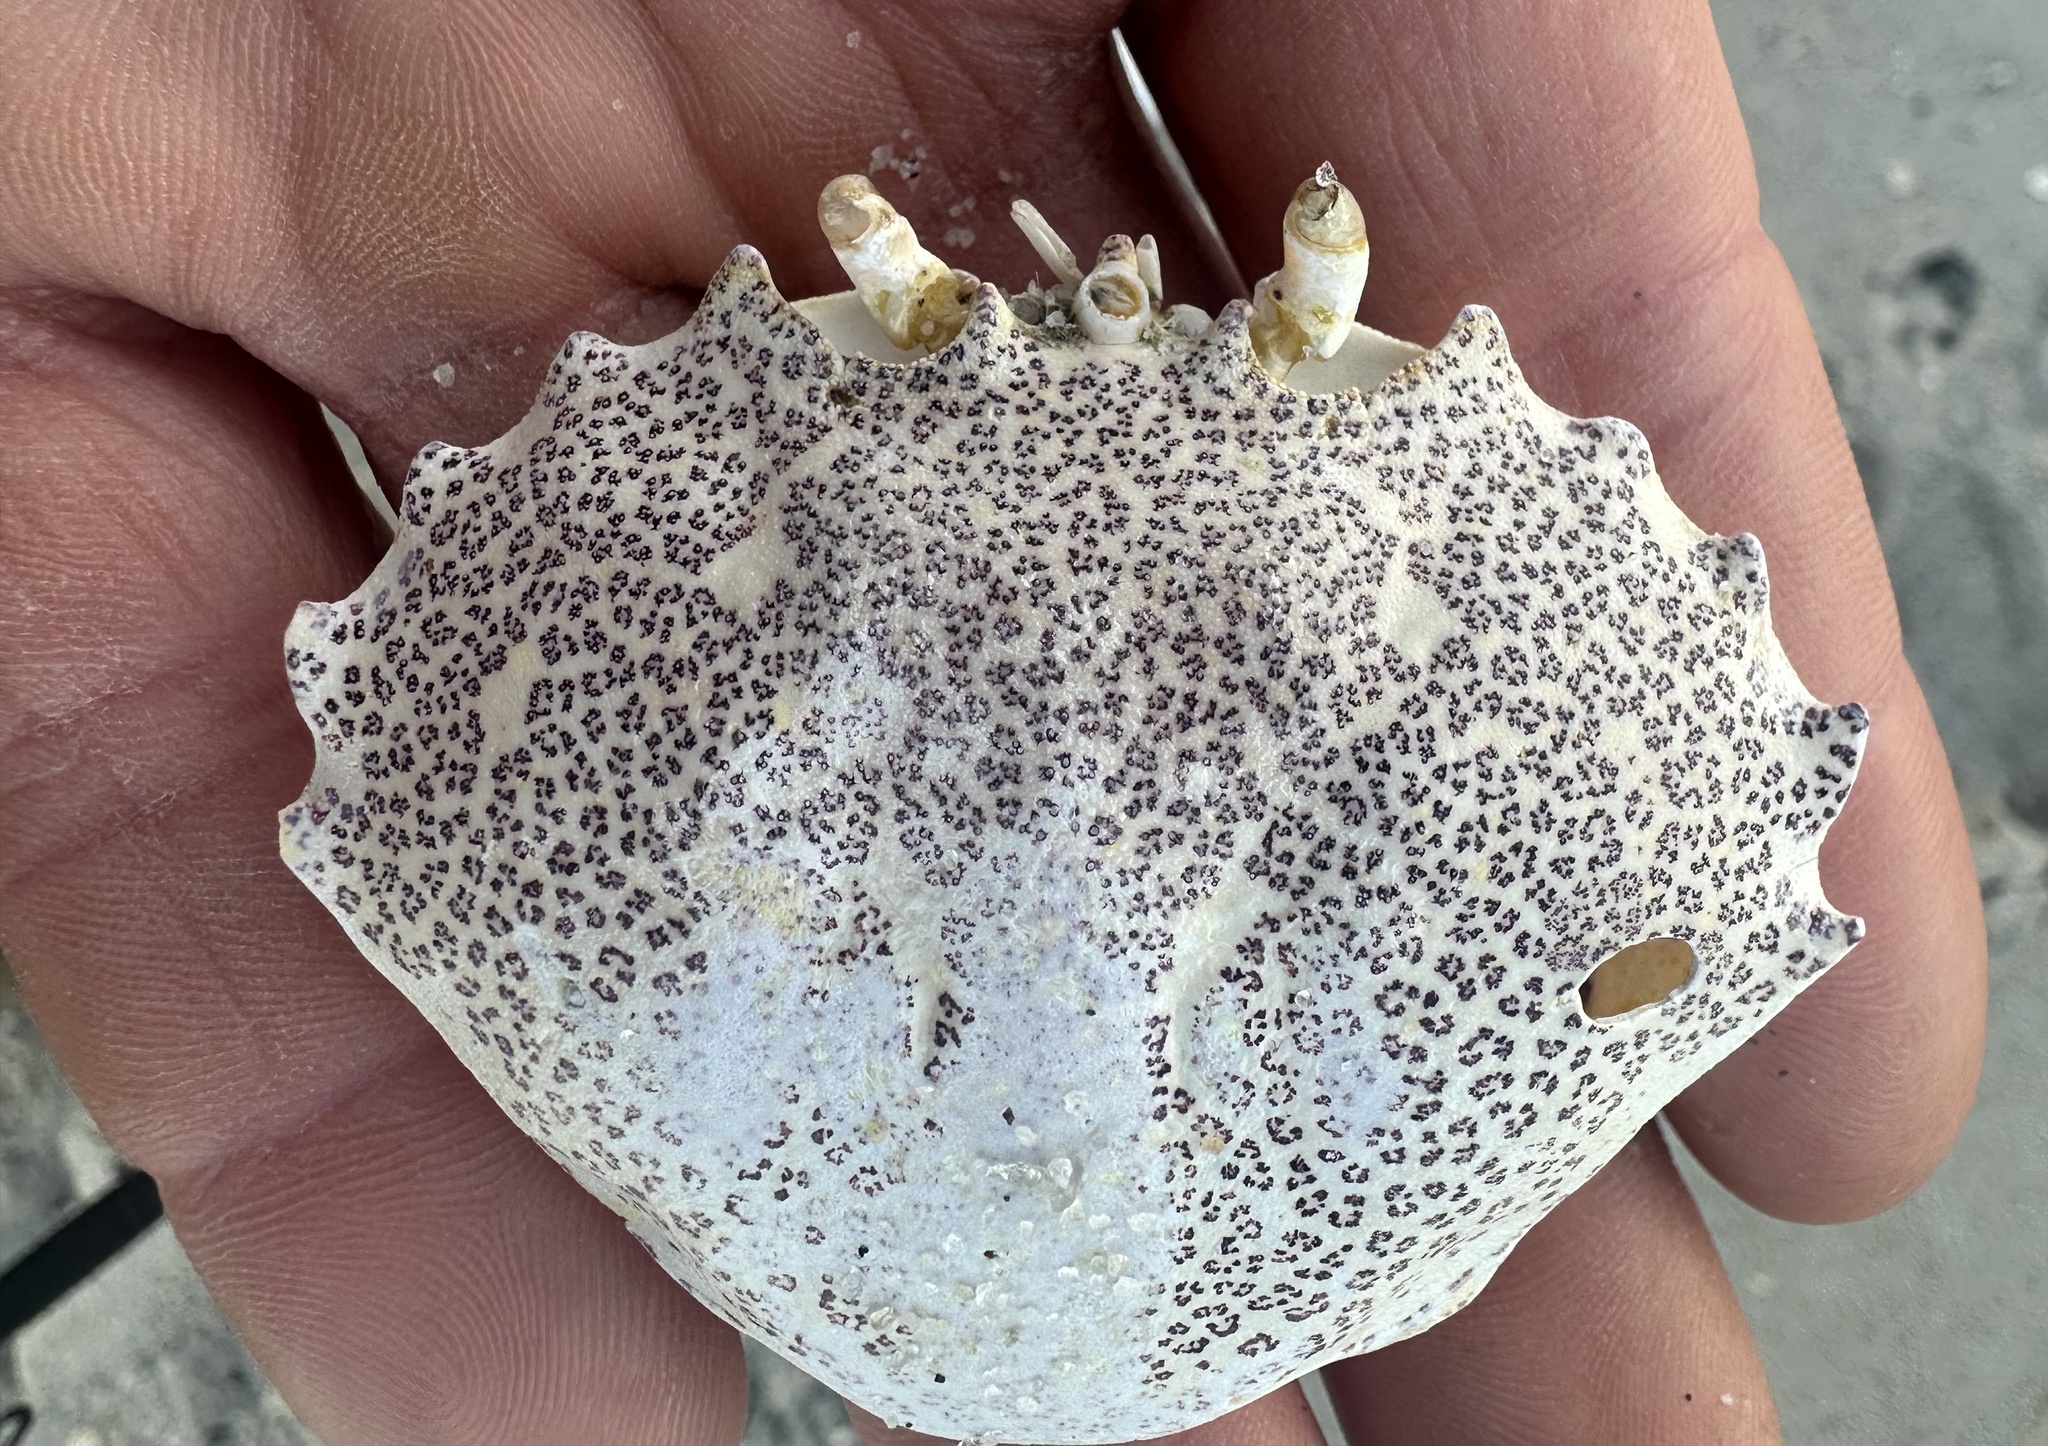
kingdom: Animalia
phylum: Arthropoda
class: Malacostraca
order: Decapoda
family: Ovalipidae
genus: Ovalipes
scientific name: Ovalipes ocellatus
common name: Lady crab
